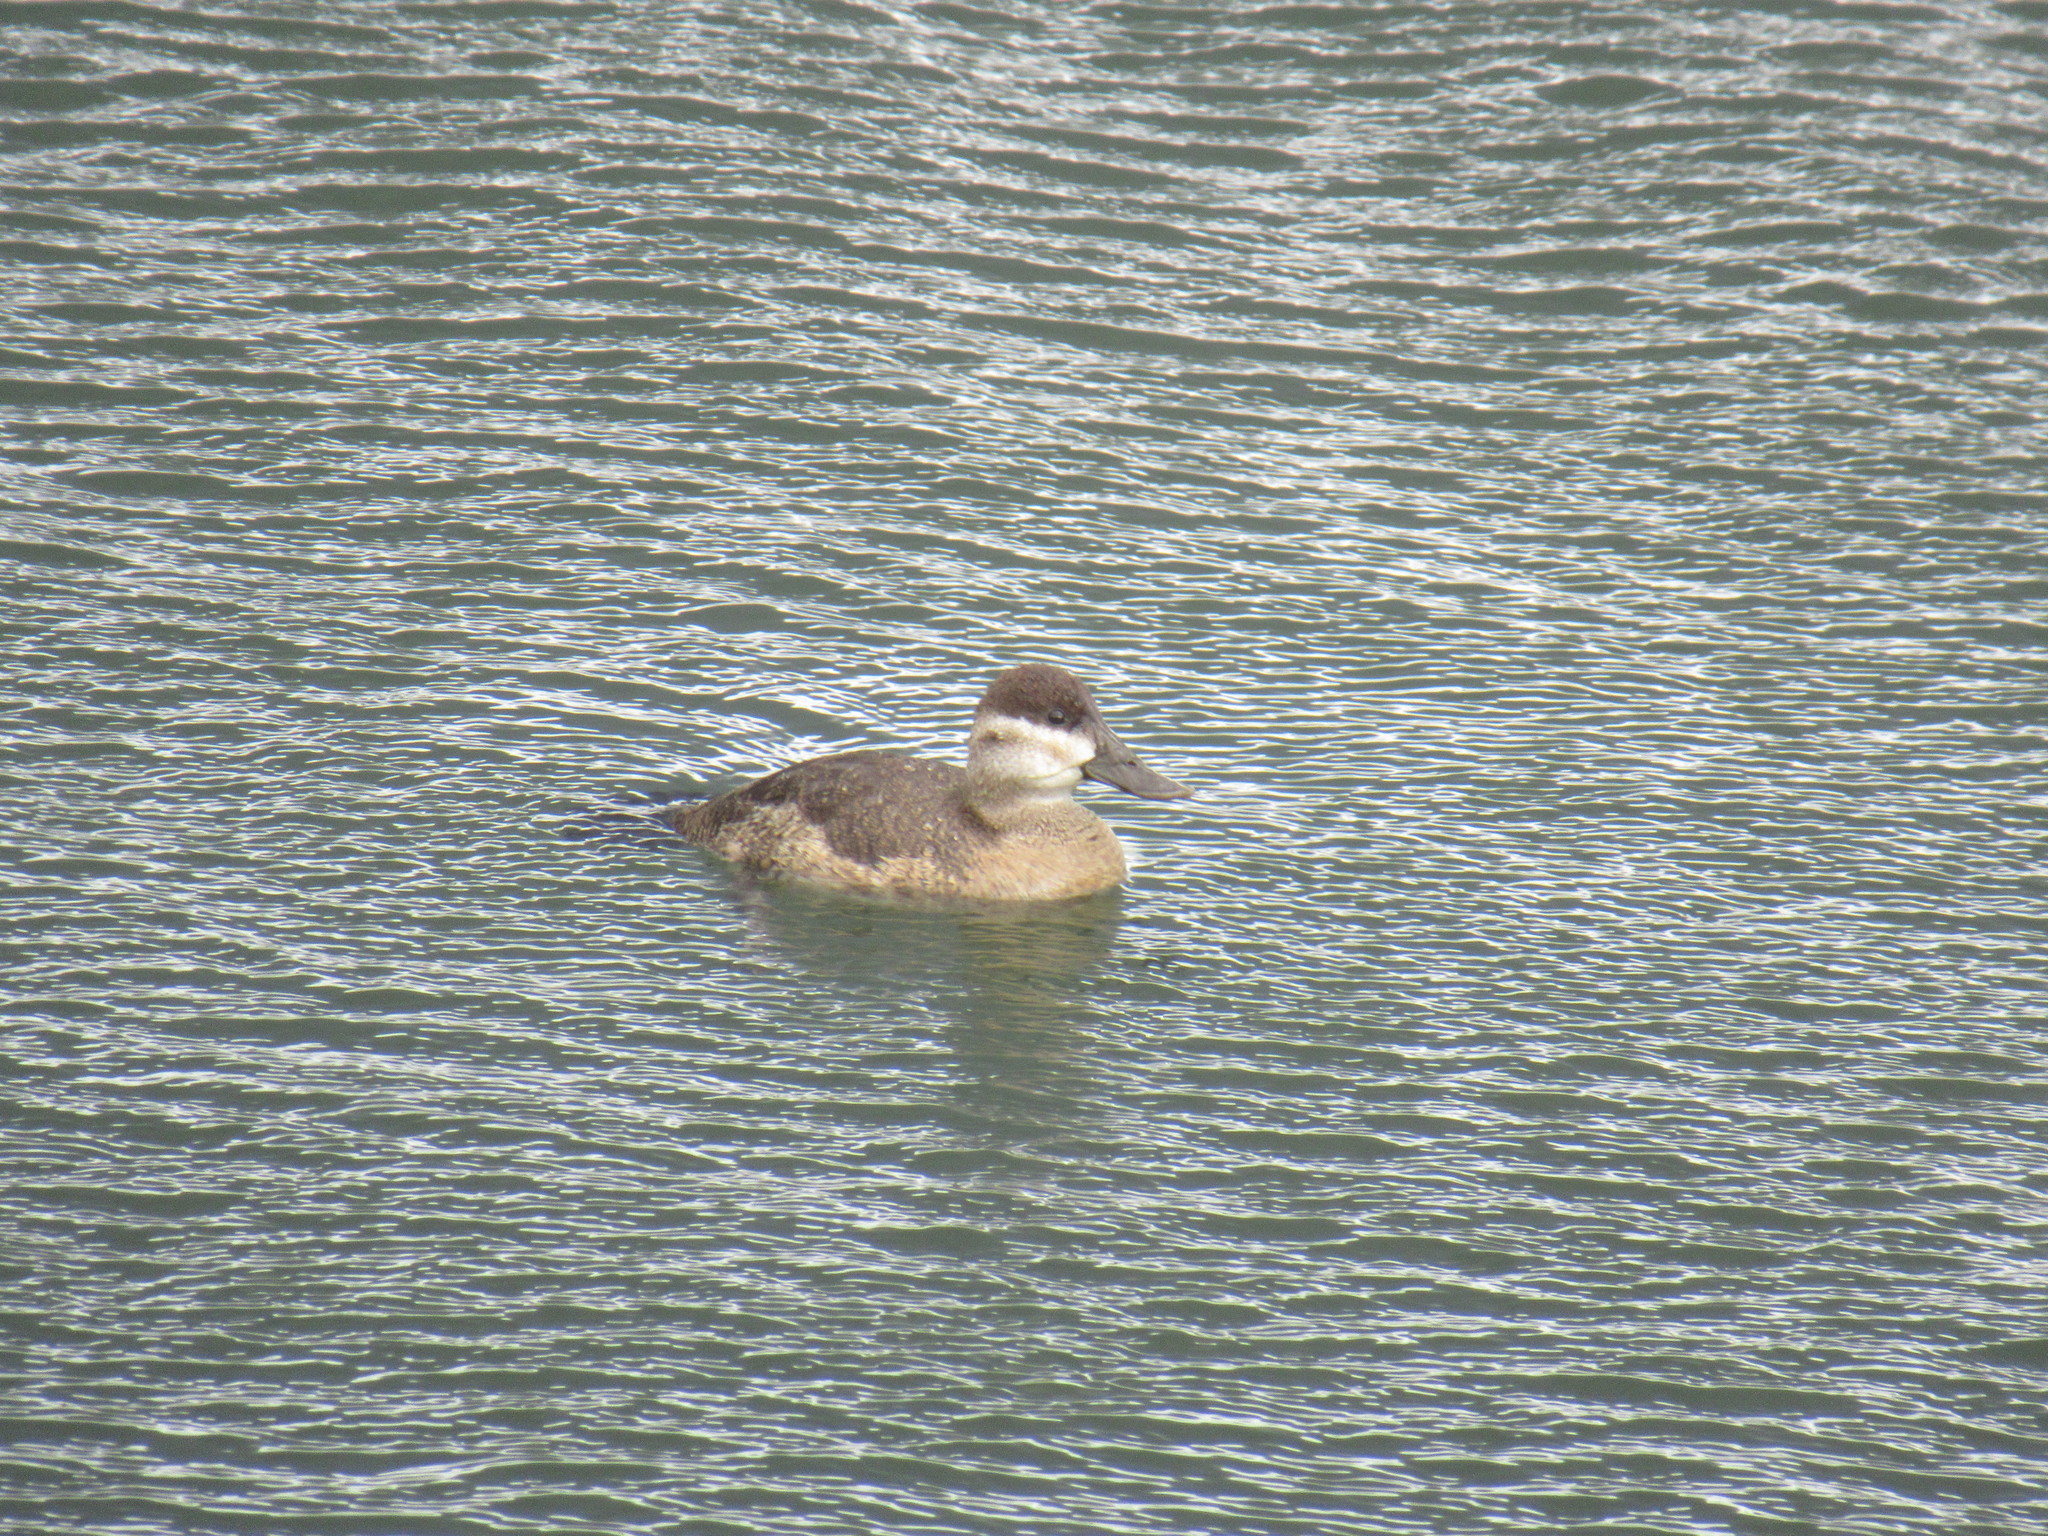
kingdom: Animalia
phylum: Chordata
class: Aves
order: Anseriformes
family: Anatidae
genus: Oxyura
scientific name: Oxyura jamaicensis
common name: Ruddy duck
